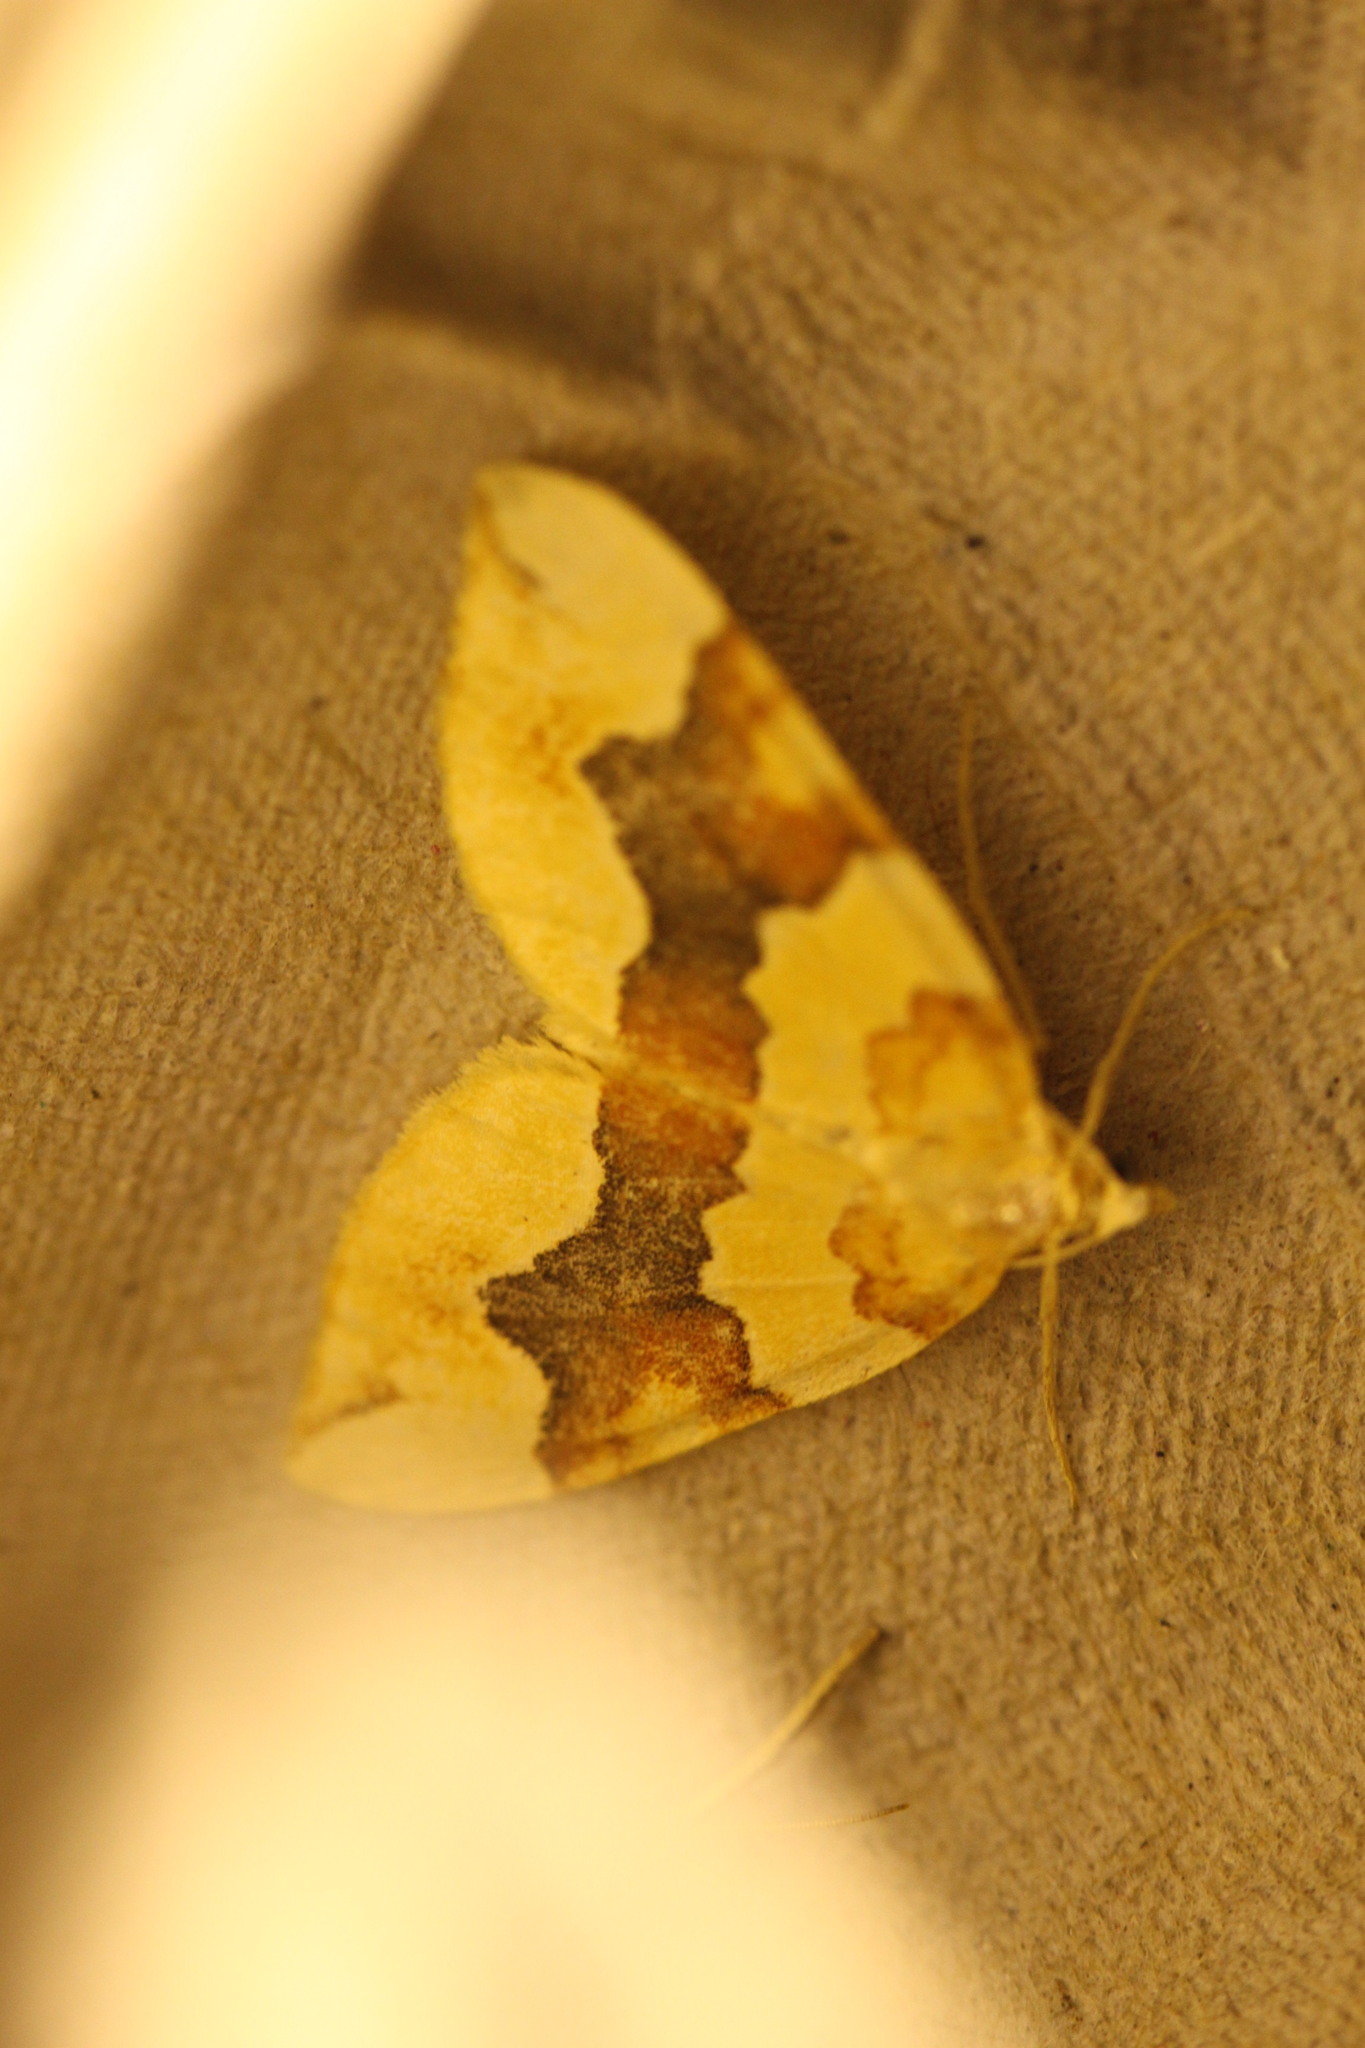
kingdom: Animalia
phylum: Arthropoda
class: Insecta
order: Lepidoptera
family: Geometridae
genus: Cidaria
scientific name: Cidaria fulvata
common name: Barred yellow
